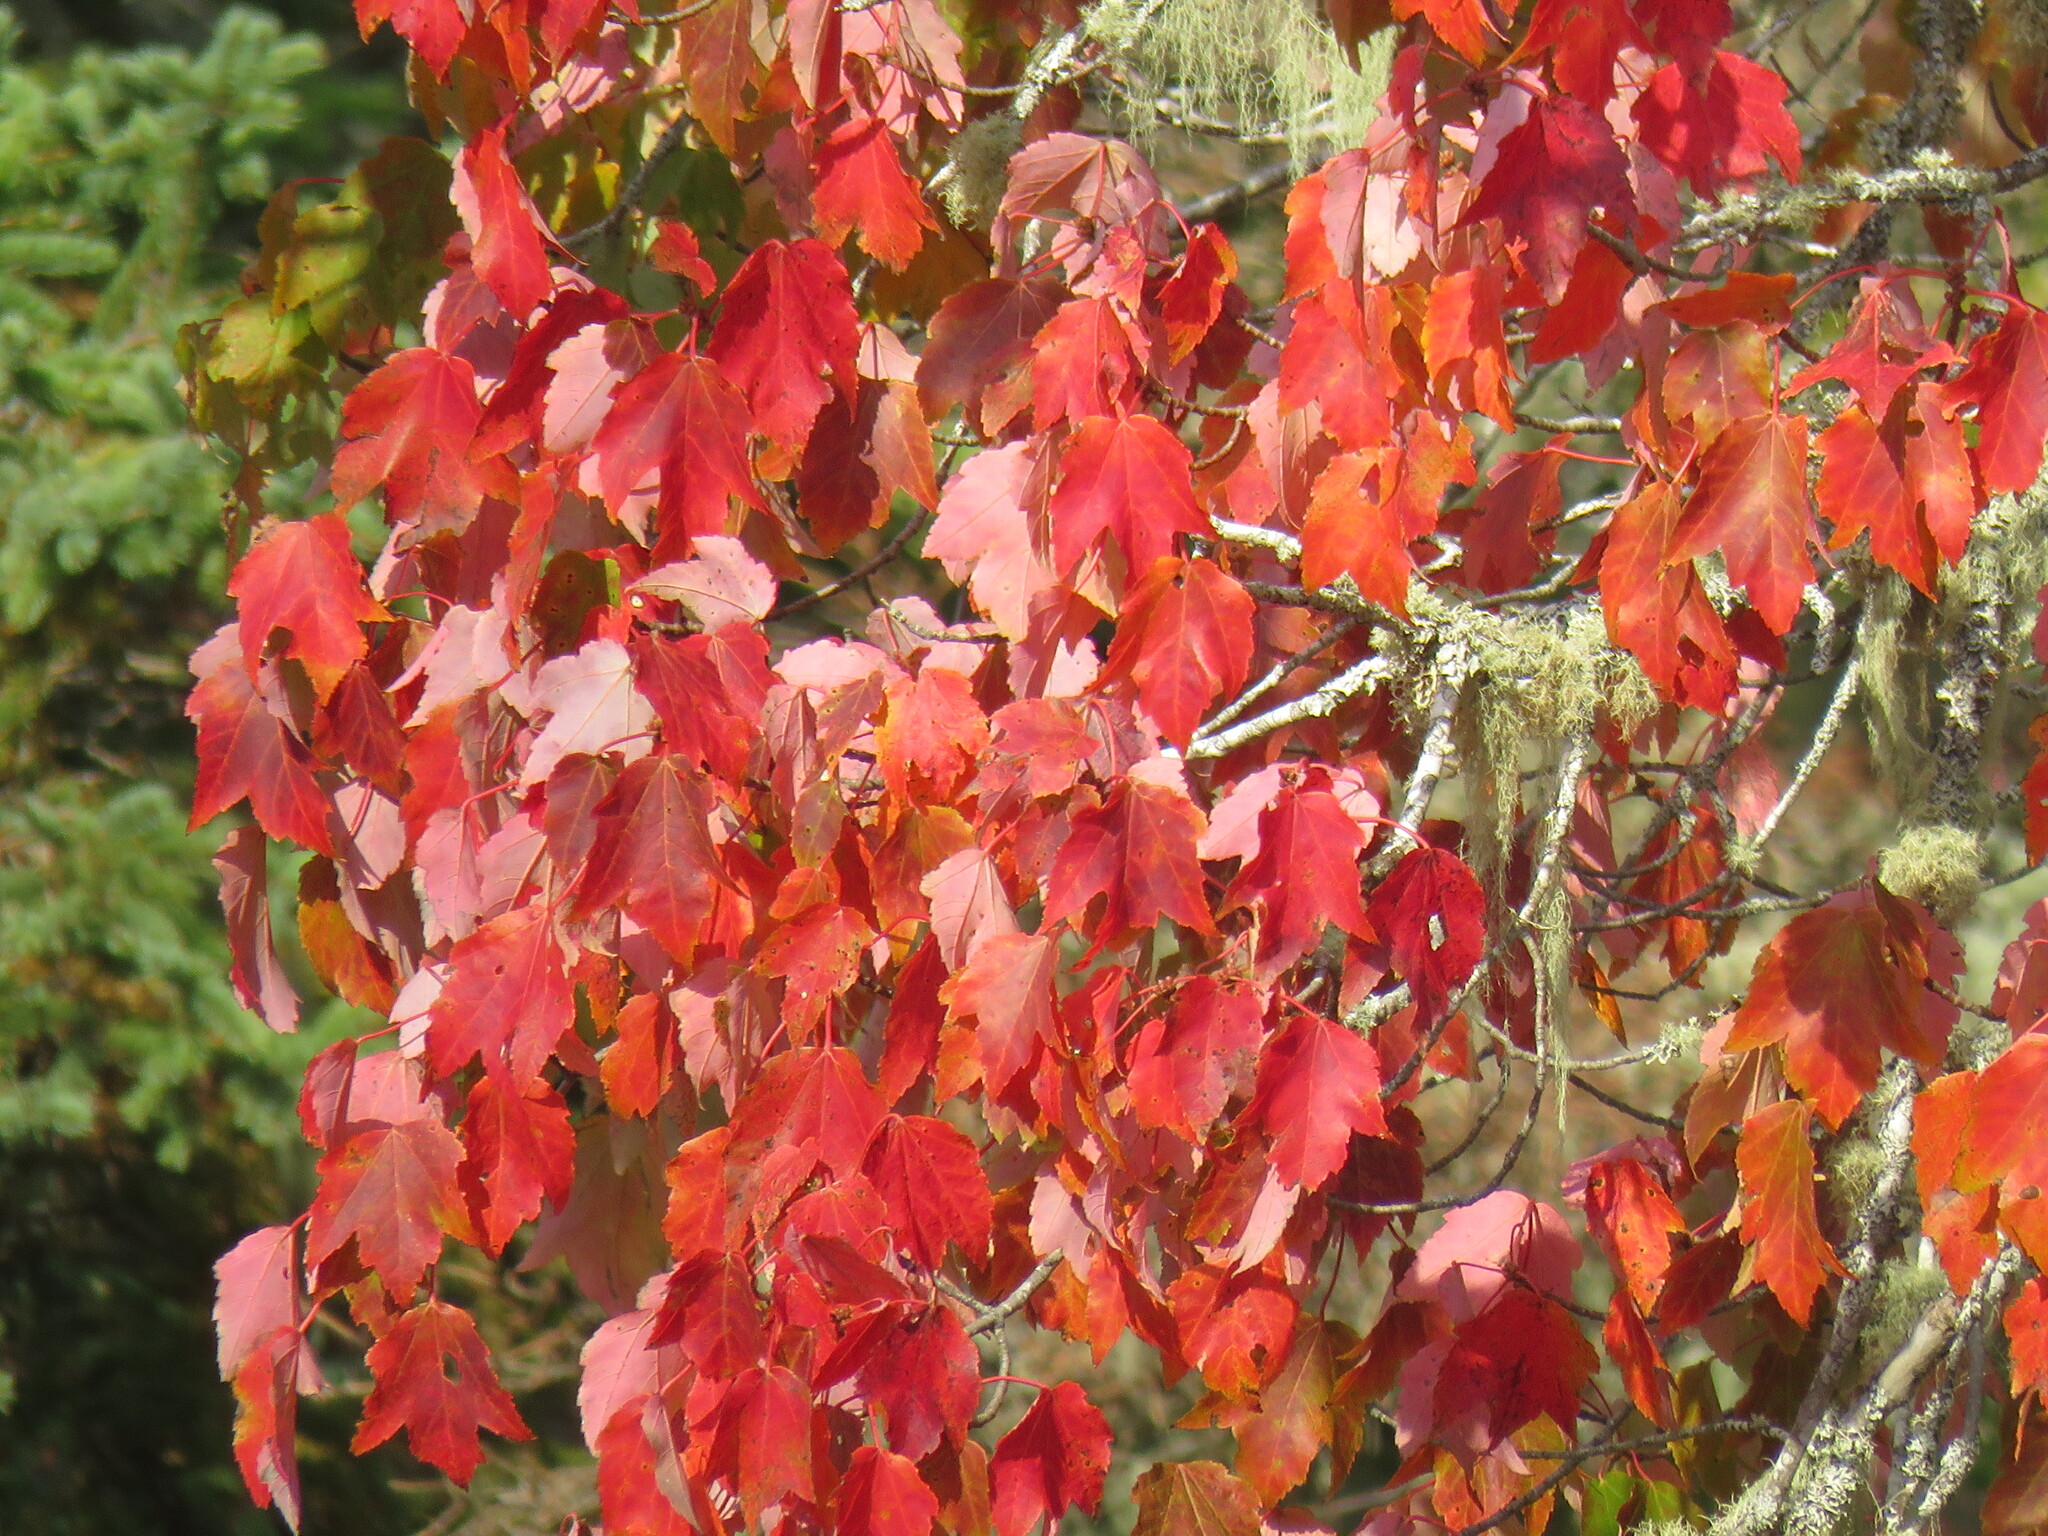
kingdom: Plantae
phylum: Tracheophyta
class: Magnoliopsida
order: Sapindales
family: Sapindaceae
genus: Acer
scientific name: Acer rubrum
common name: Red maple
